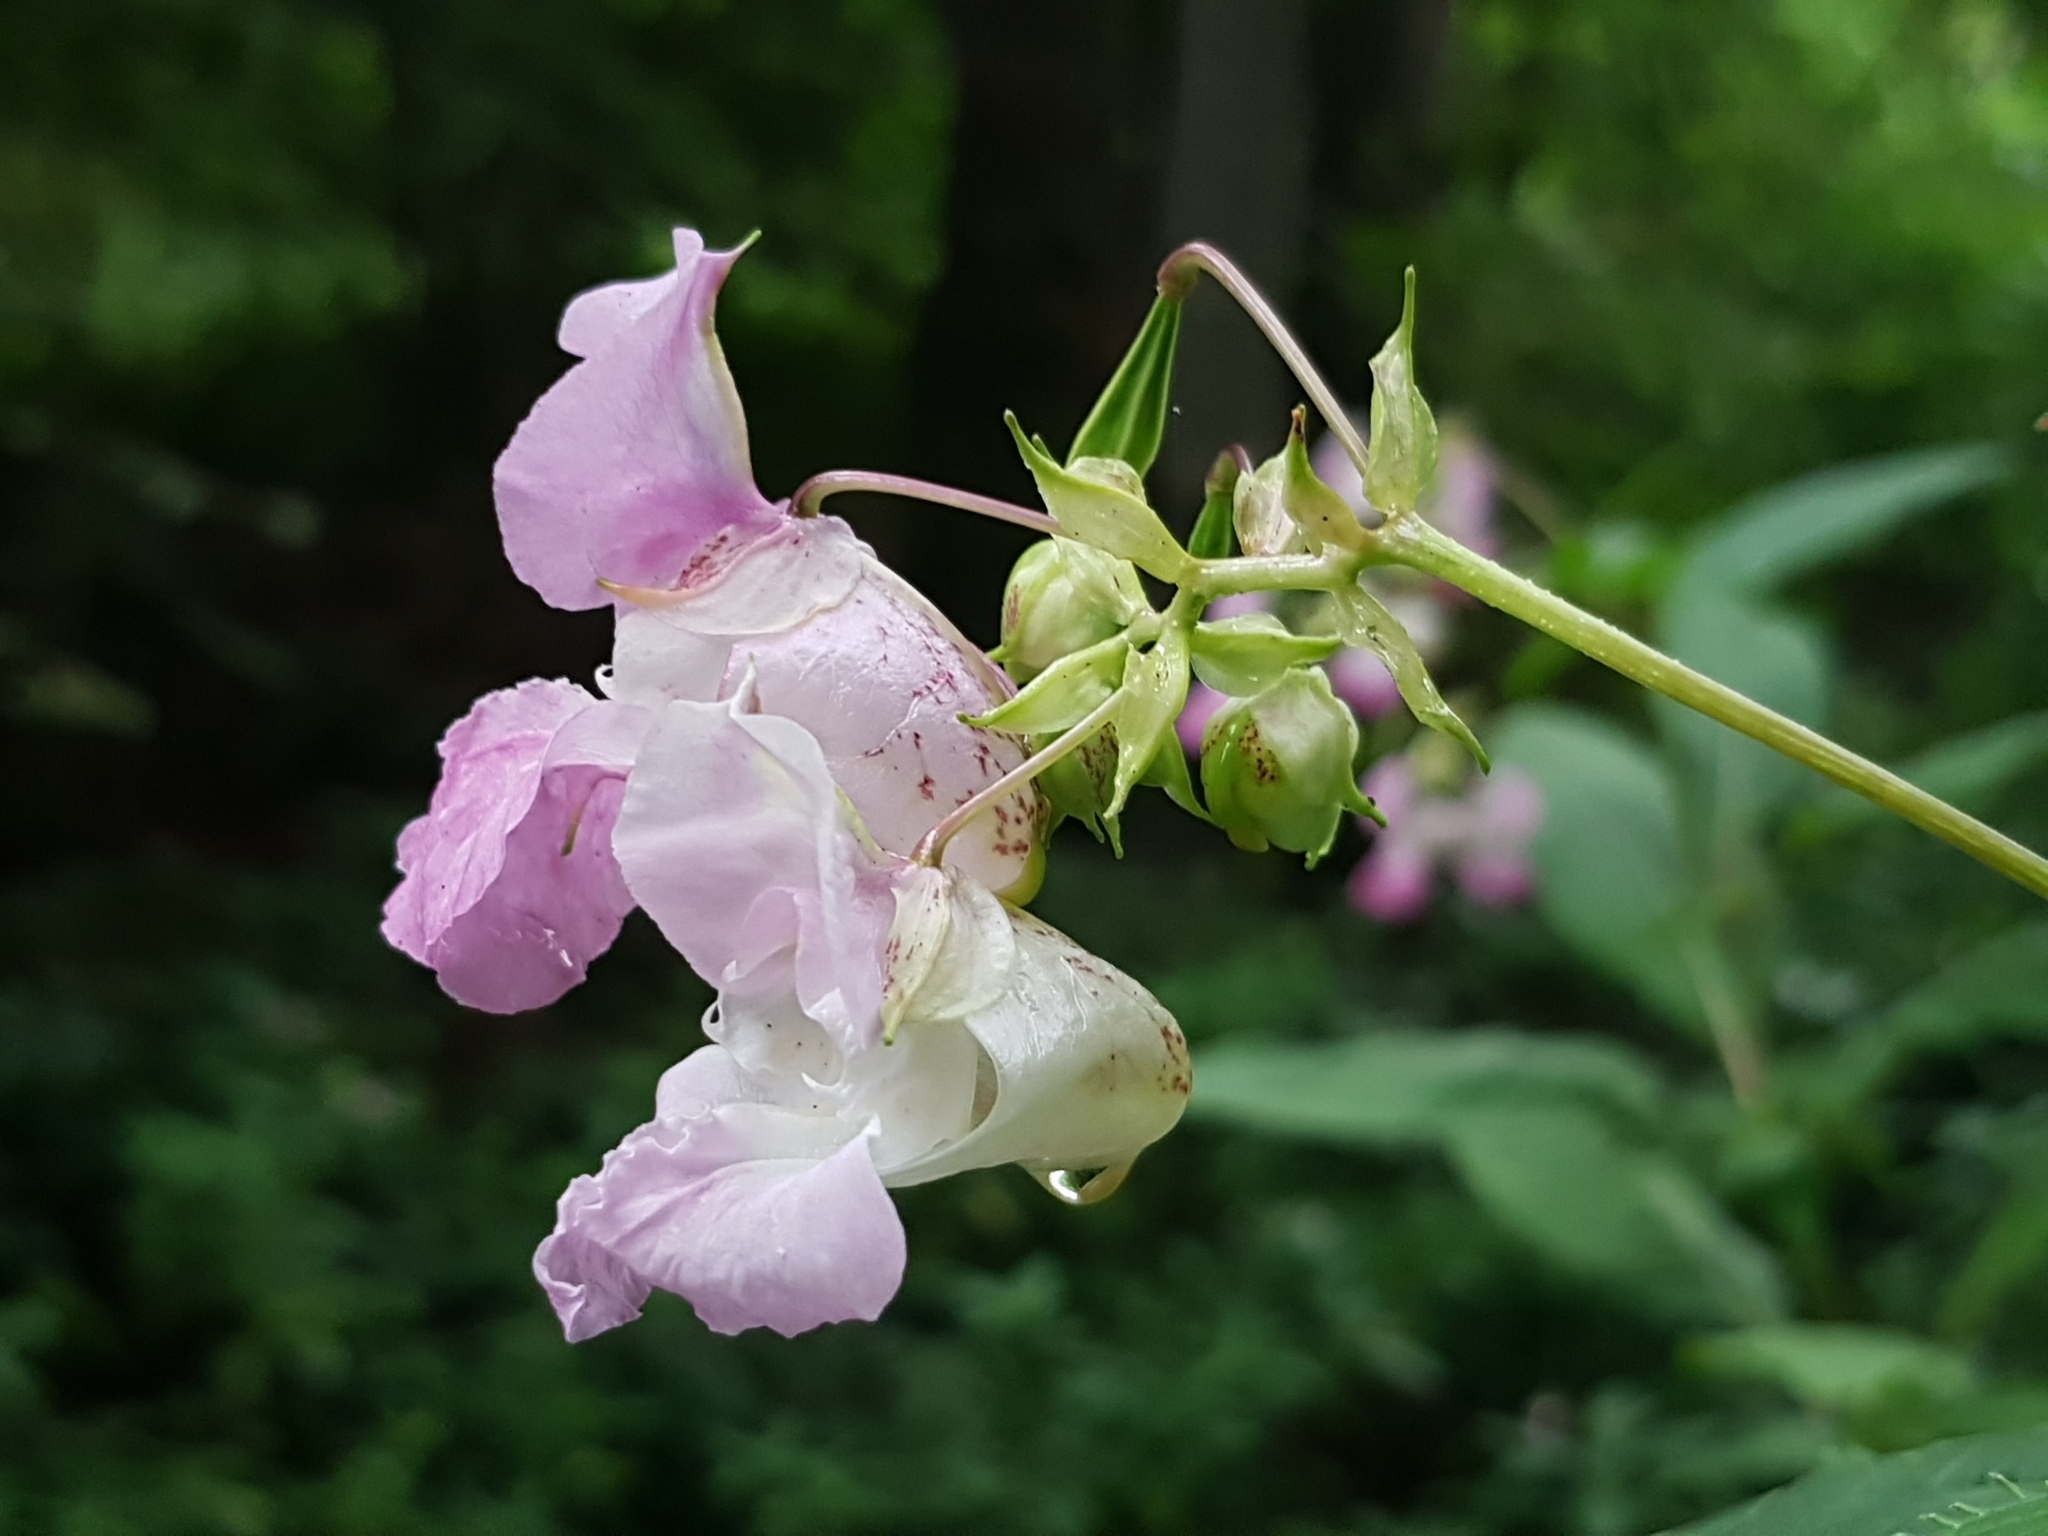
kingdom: Plantae
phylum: Tracheophyta
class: Magnoliopsida
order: Ericales
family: Balsaminaceae
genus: Impatiens
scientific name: Impatiens glandulifera
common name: Himalayan balsam
